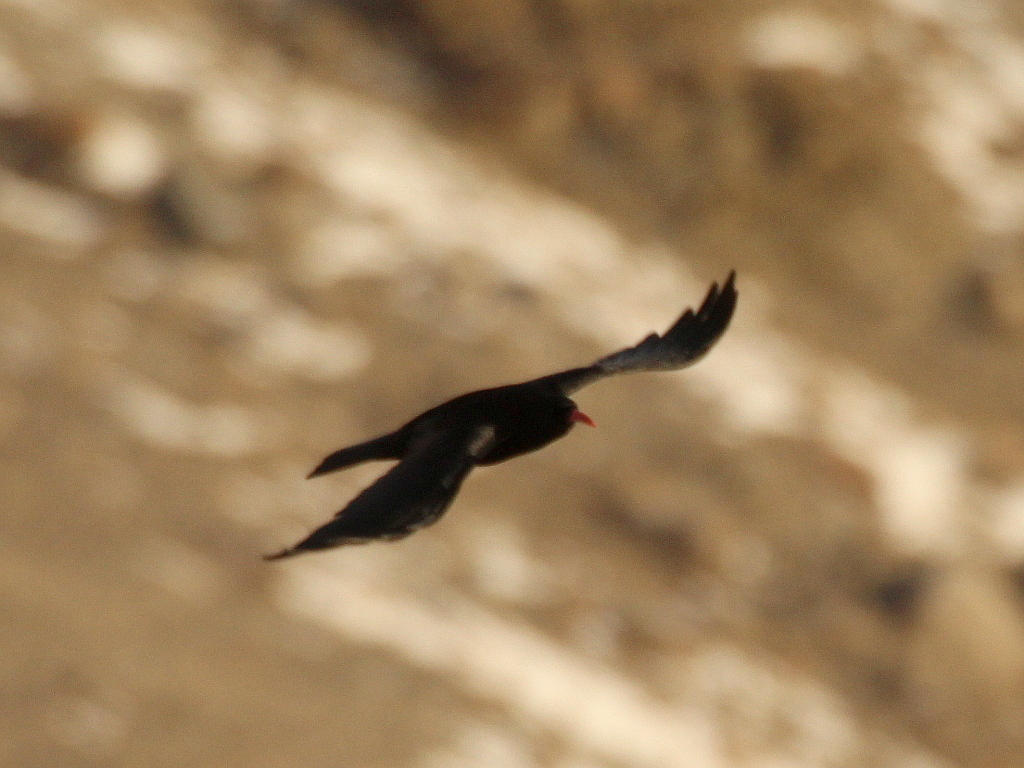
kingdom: Animalia
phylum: Chordata
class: Aves
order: Passeriformes
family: Corvidae
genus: Pyrrhocorax
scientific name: Pyrrhocorax pyrrhocorax
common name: Red-billed chough
